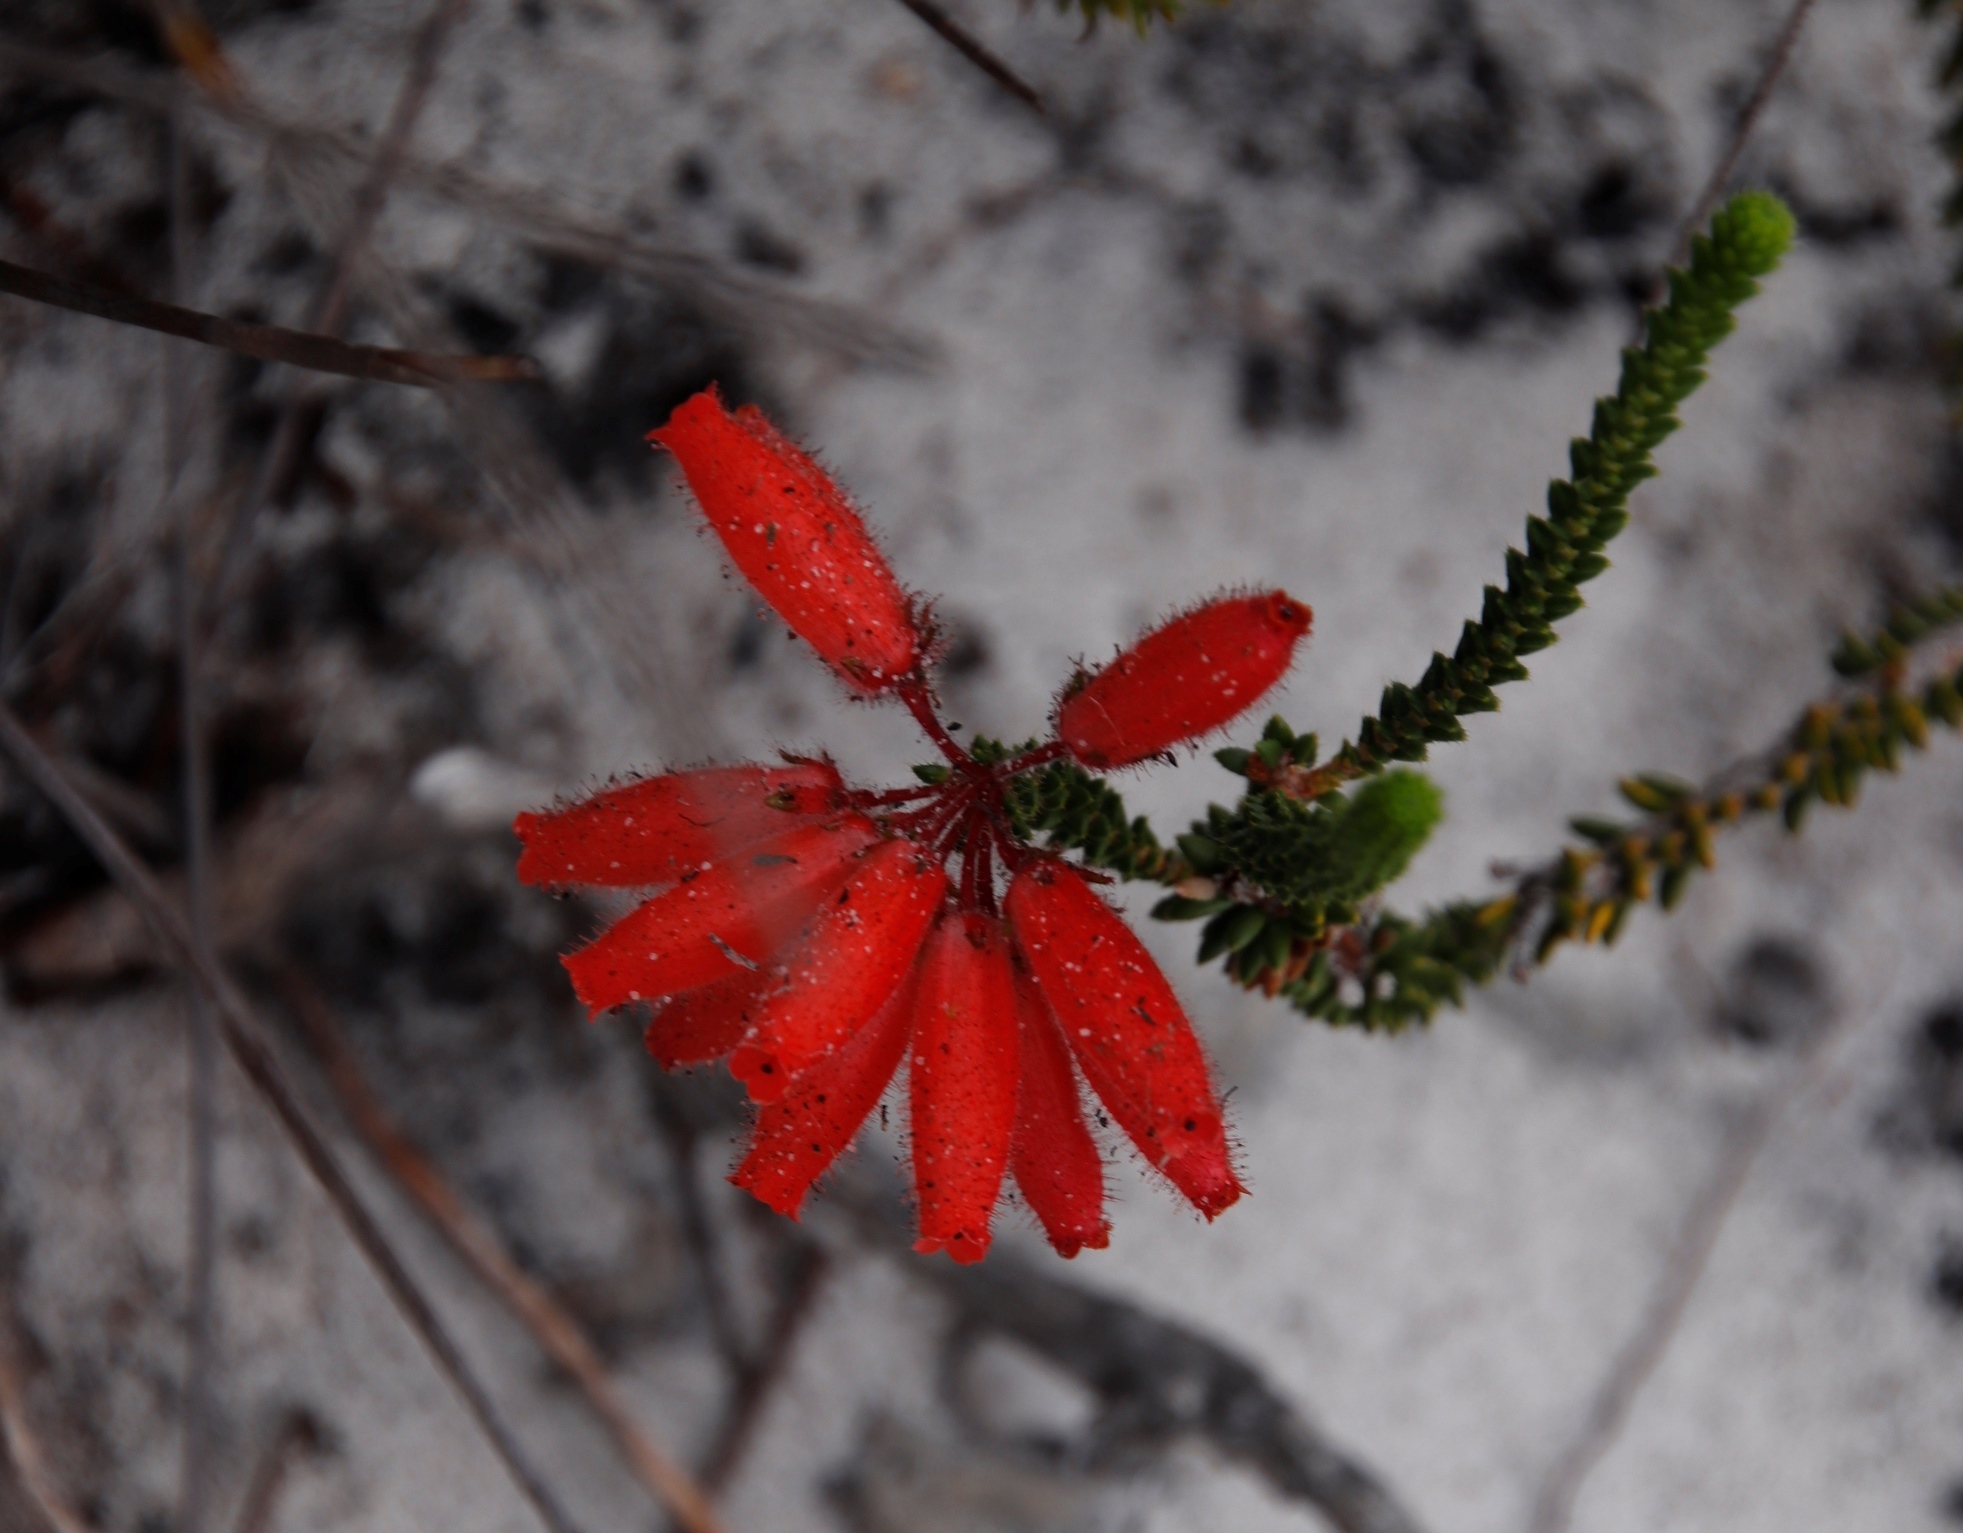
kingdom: Plantae
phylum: Tracheophyta
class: Magnoliopsida
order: Ericales
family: Ericaceae
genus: Erica
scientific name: Erica cerinthoides
